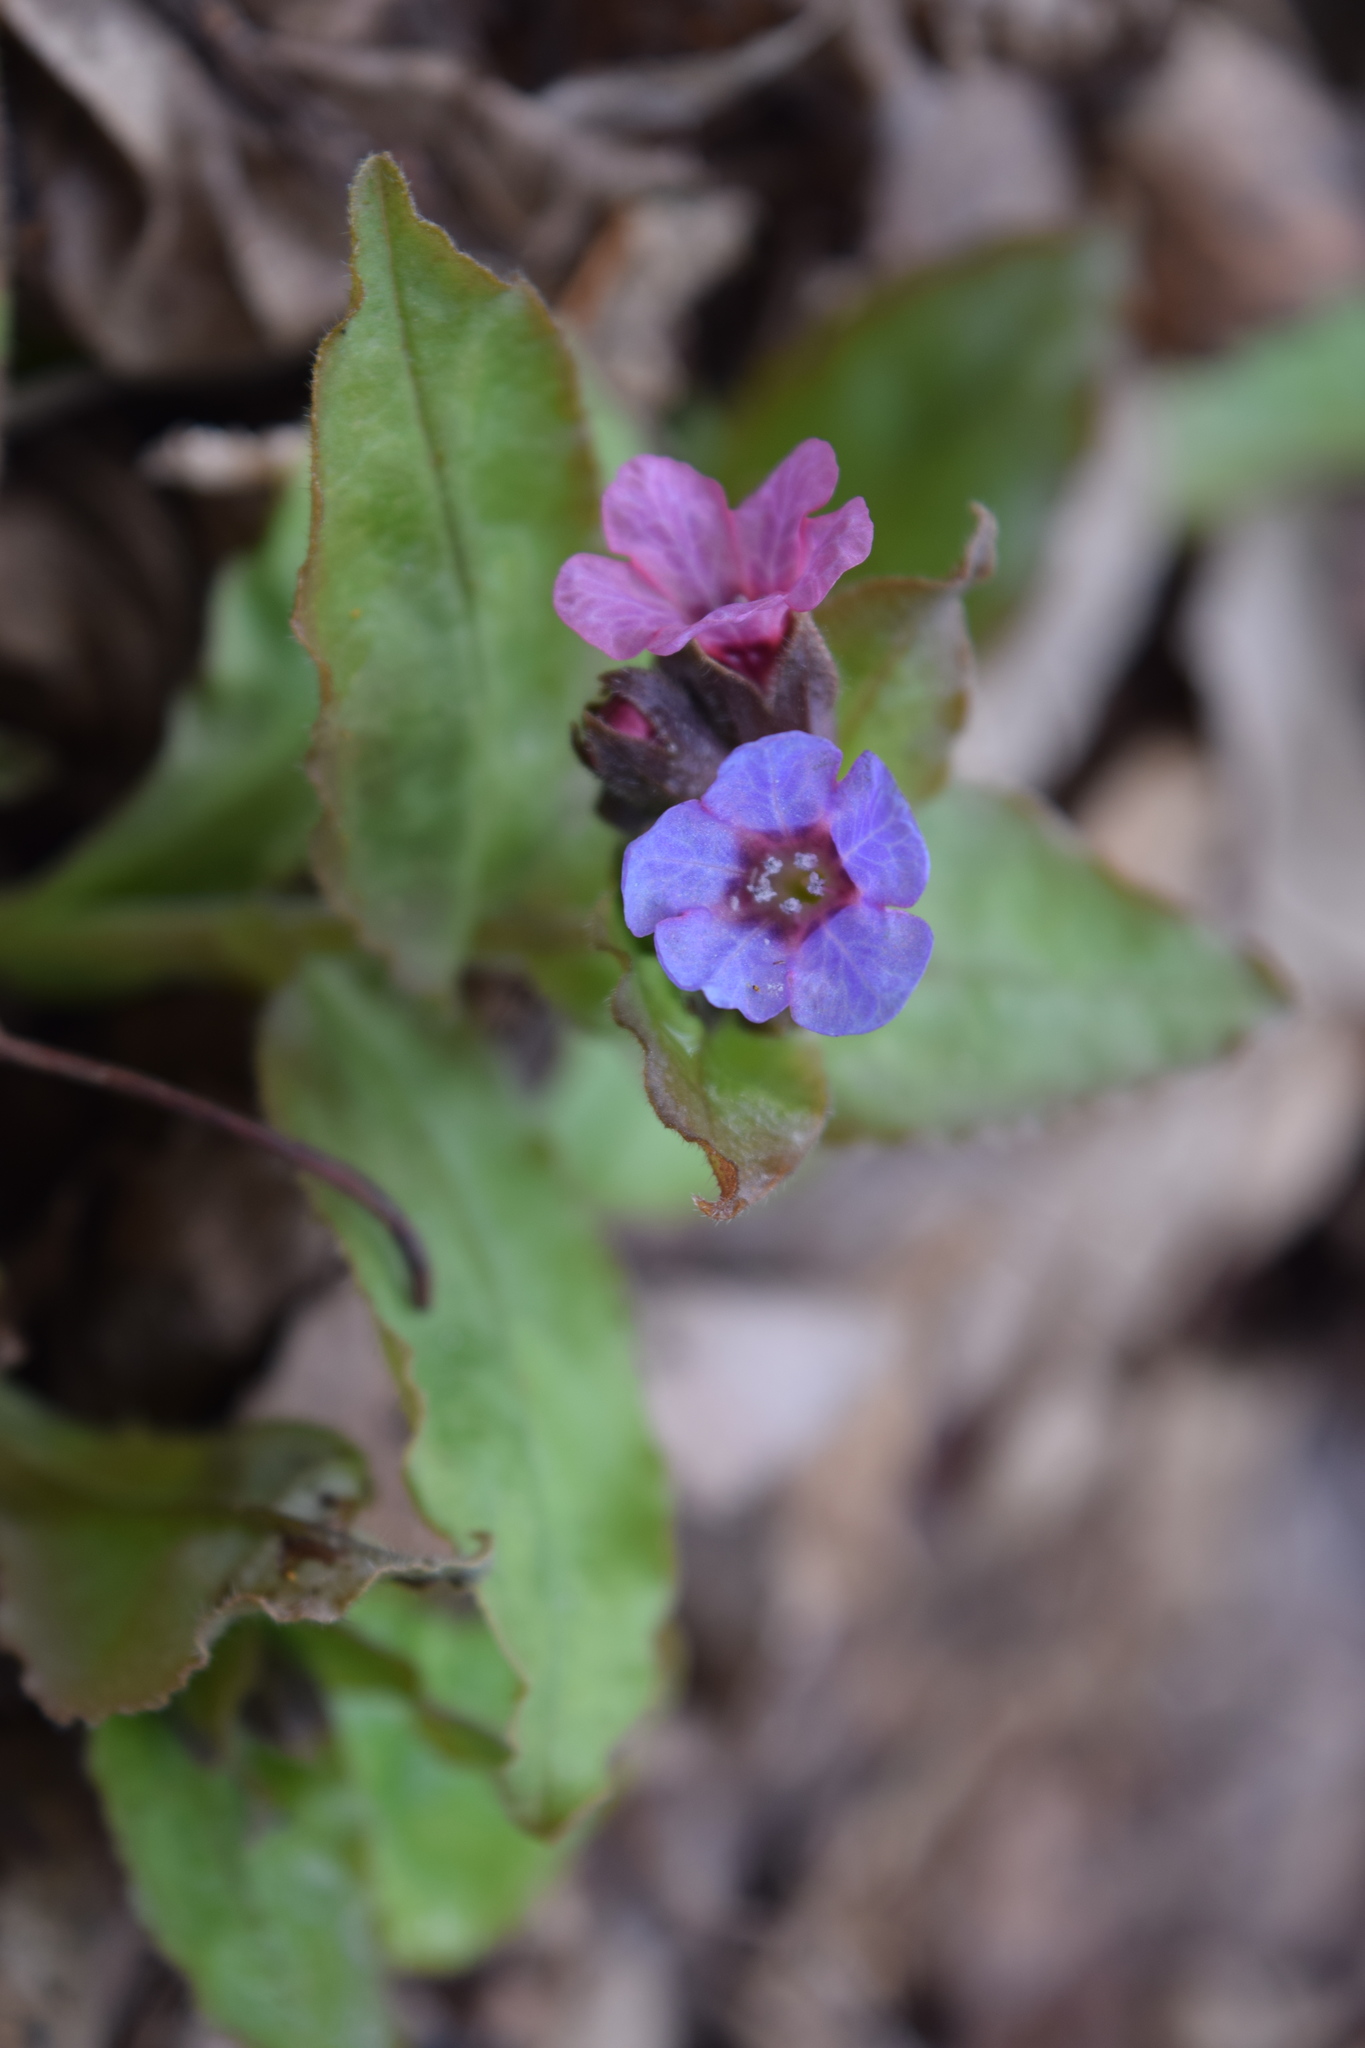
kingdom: Plantae
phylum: Tracheophyta
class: Magnoliopsida
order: Boraginales
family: Boraginaceae
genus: Pulmonaria
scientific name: Pulmonaria obscura
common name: Suffolk lungwort
